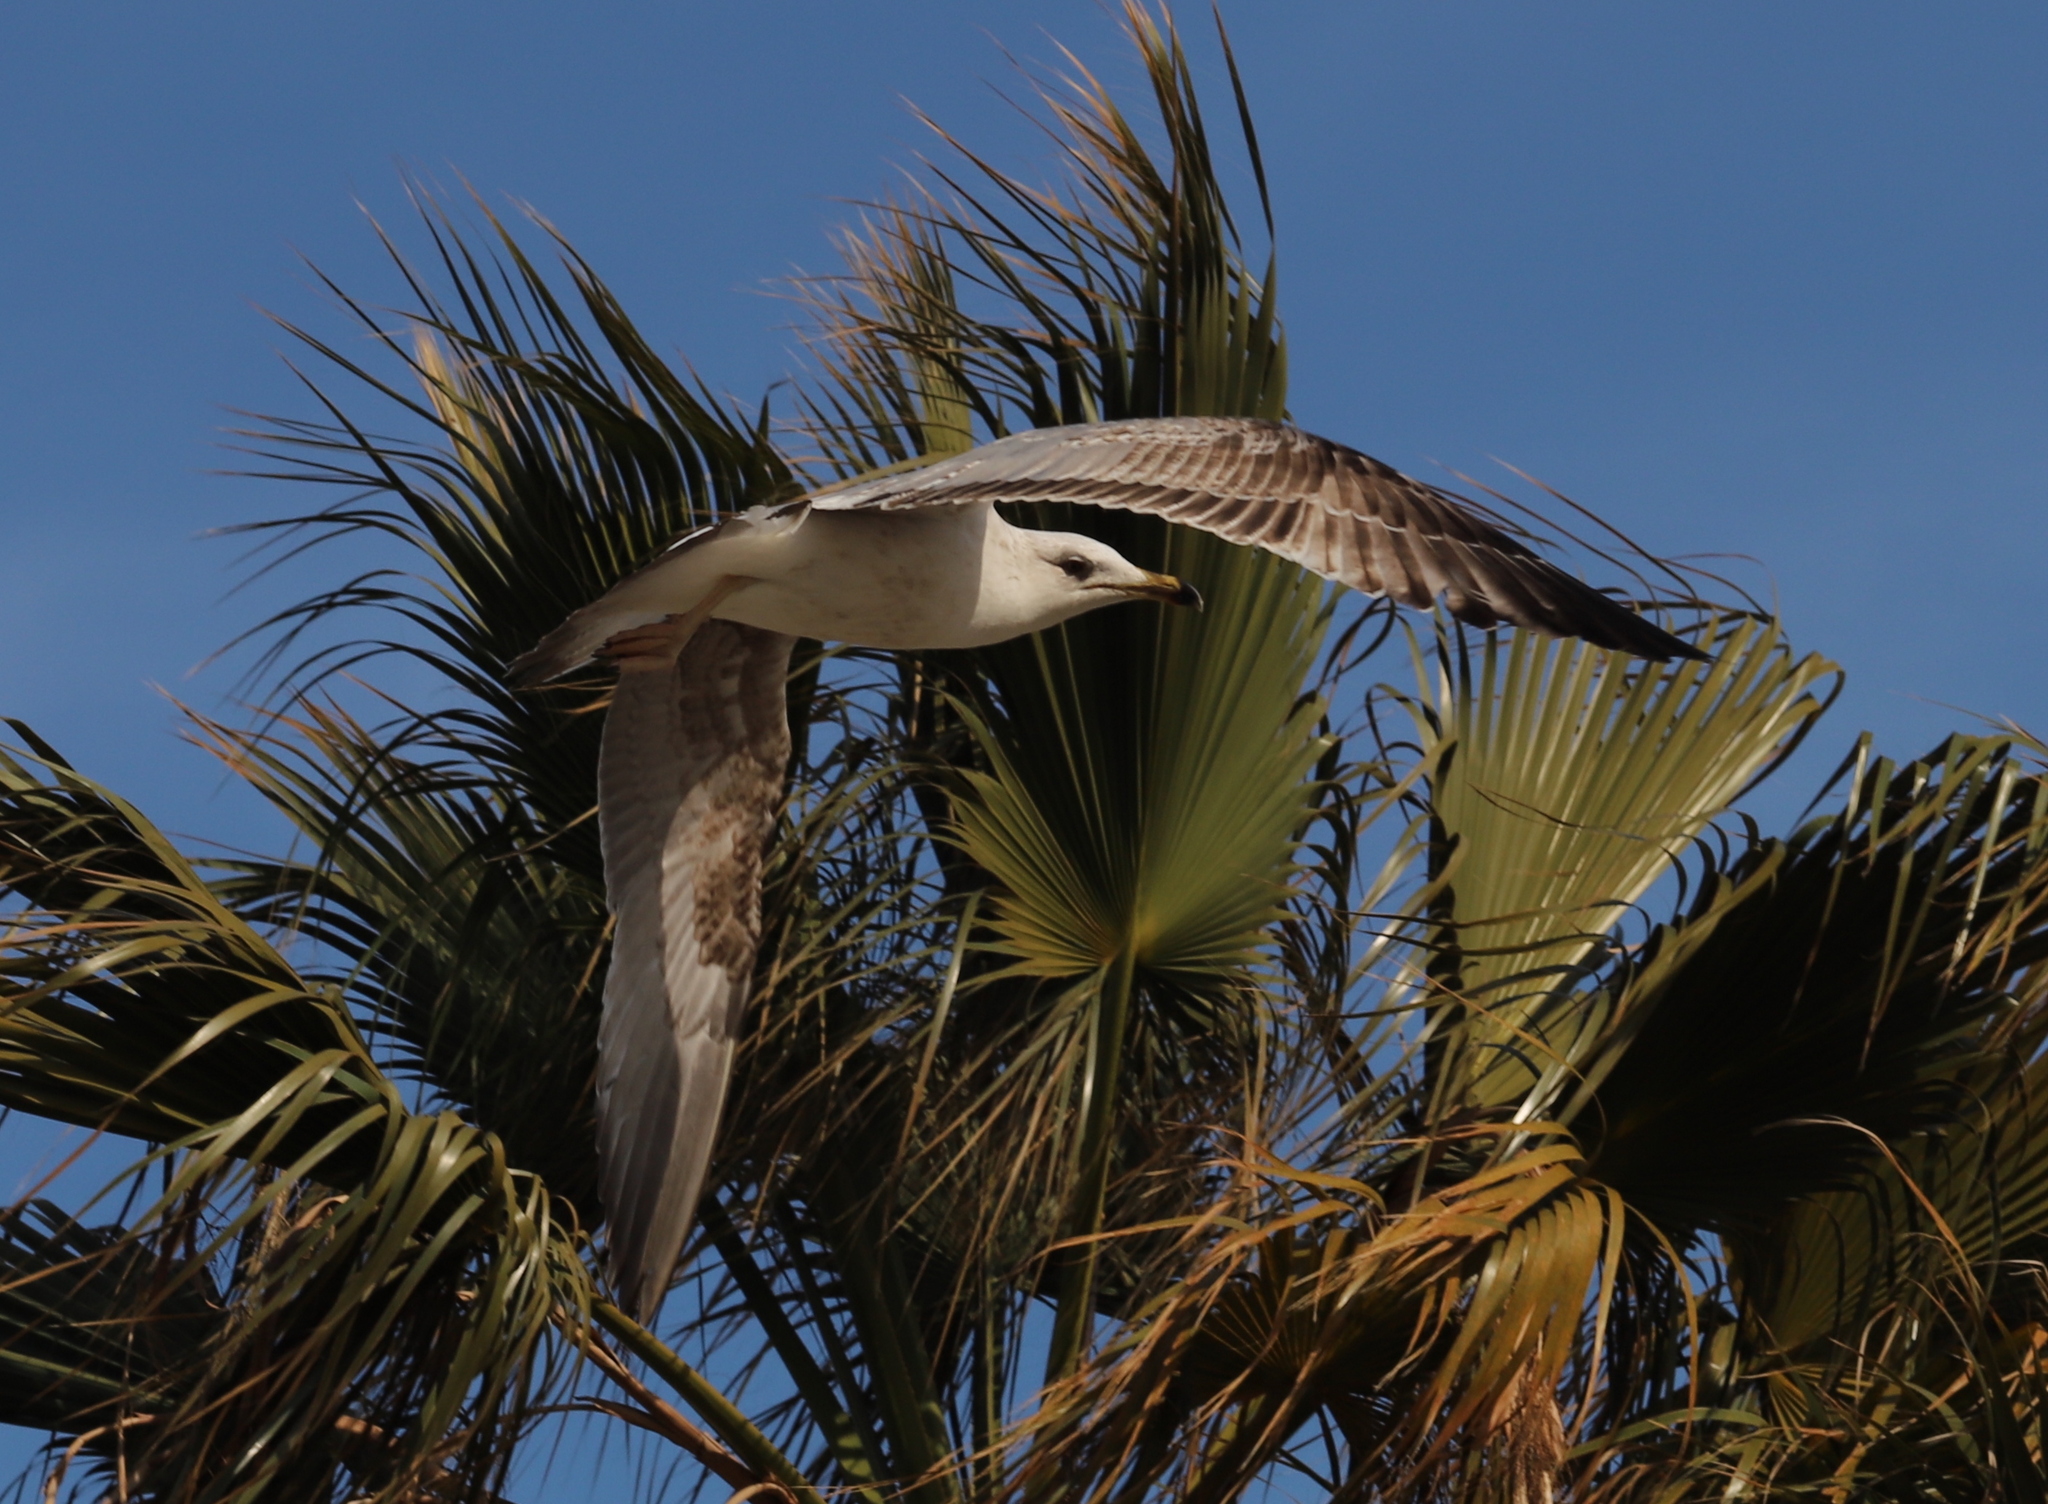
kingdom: Animalia
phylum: Chordata
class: Aves
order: Charadriiformes
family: Laridae
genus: Larus
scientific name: Larus michahellis
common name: Yellow-legged gull
